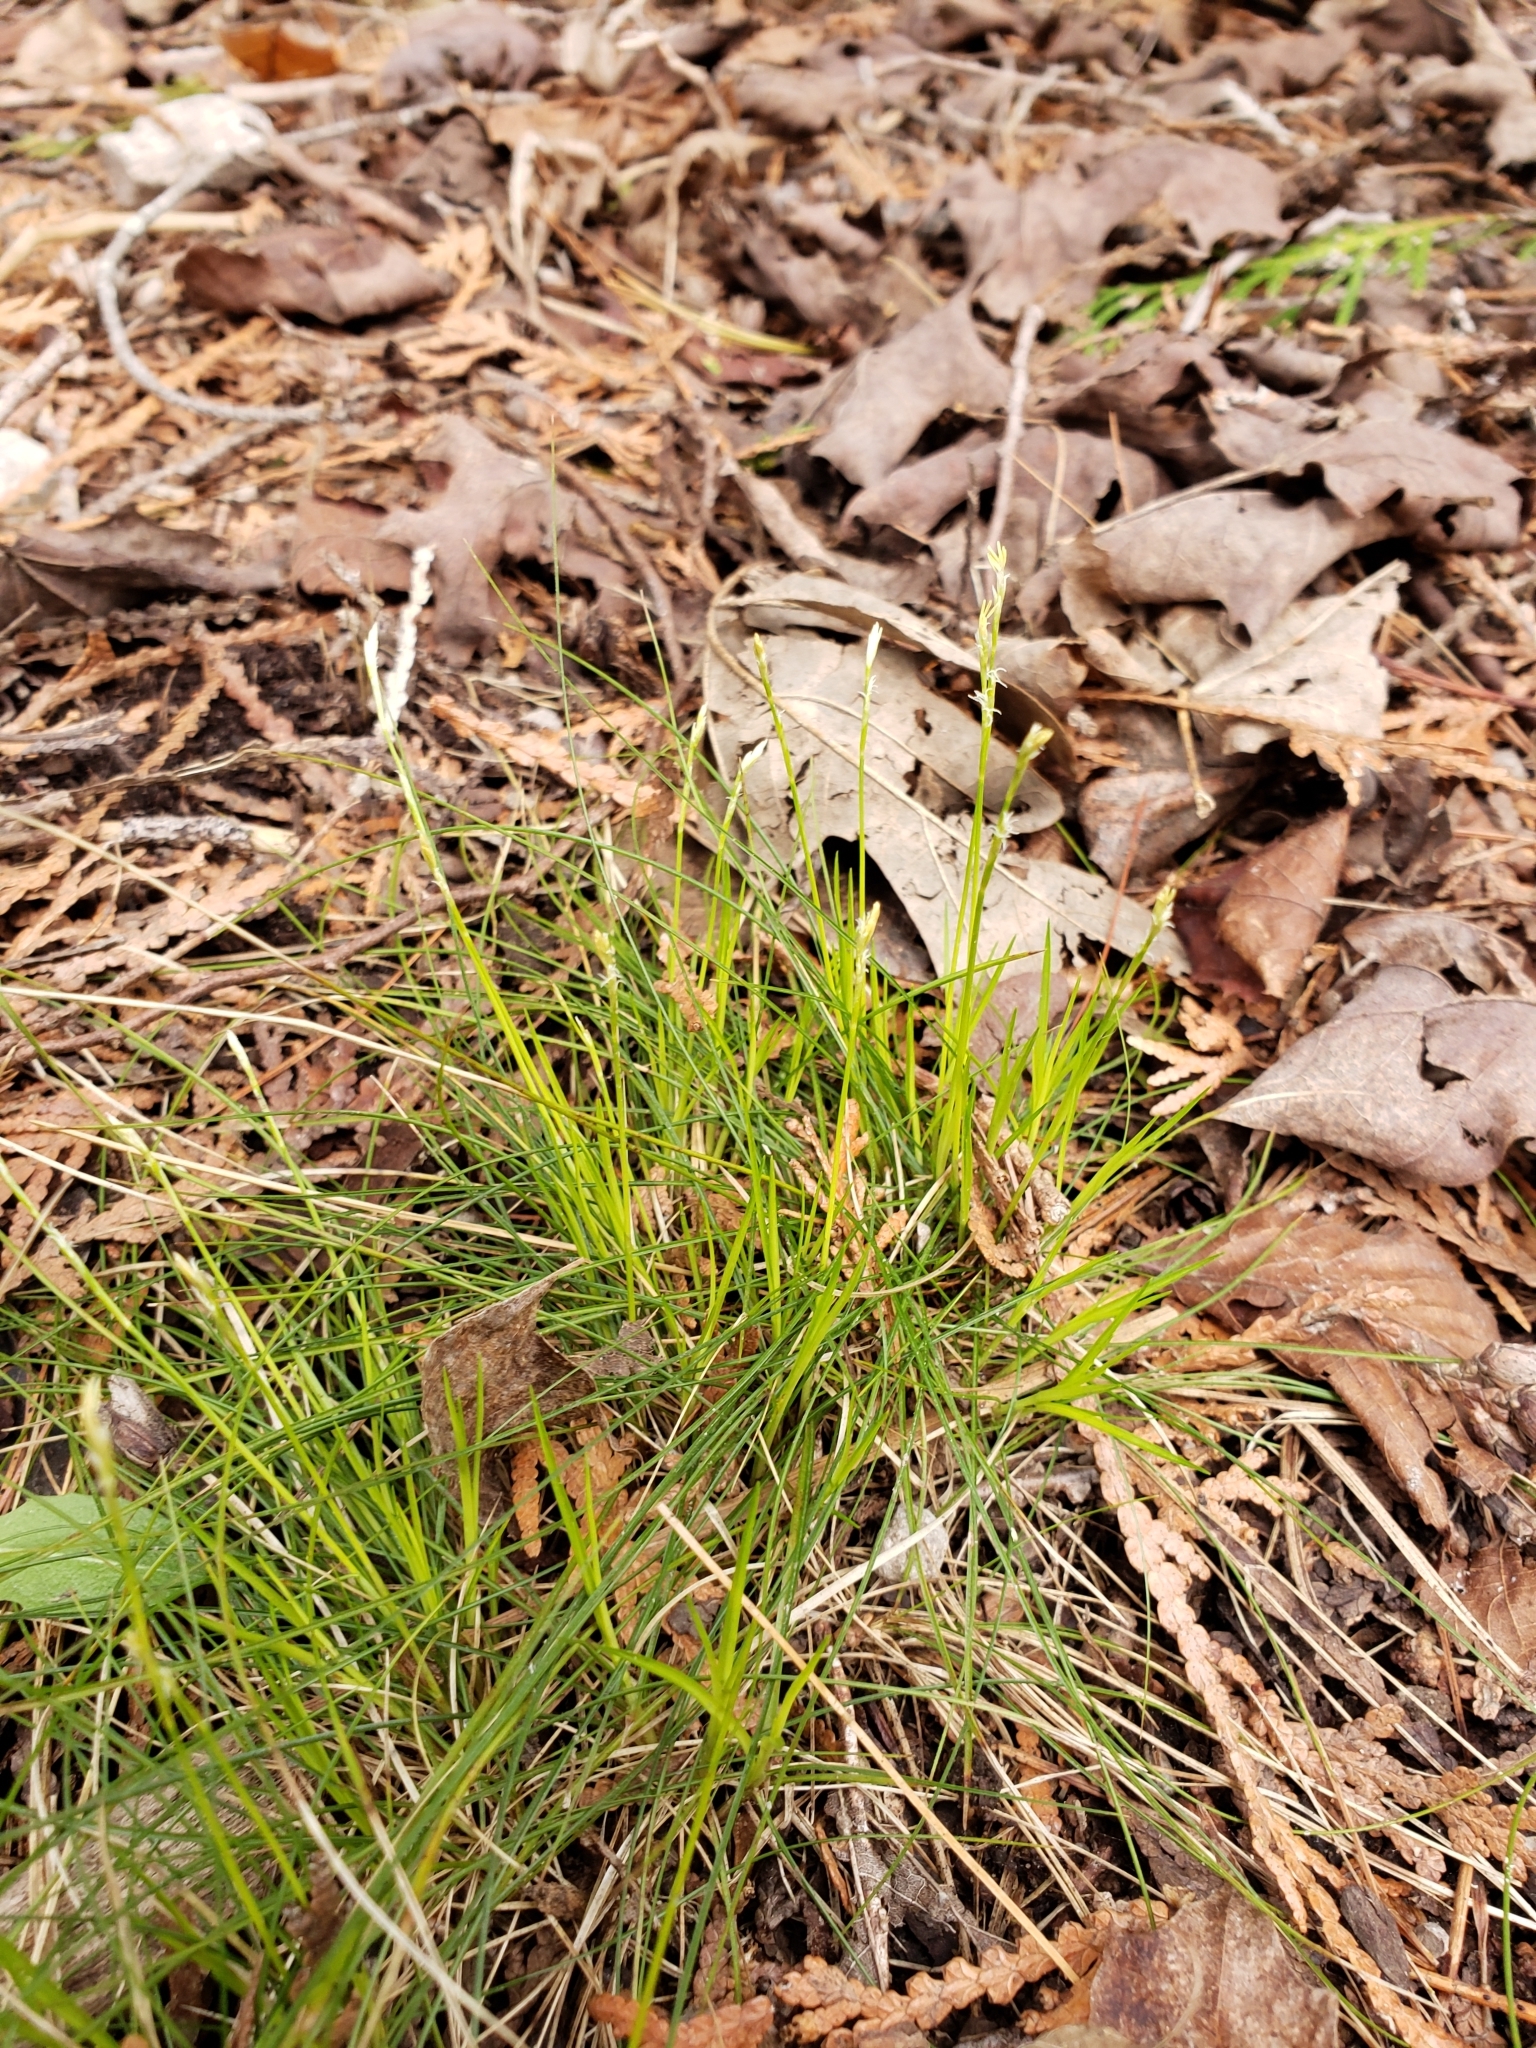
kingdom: Plantae
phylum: Tracheophyta
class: Liliopsida
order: Poales
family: Cyperaceae
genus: Carex
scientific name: Carex eburnea
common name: Bristle-leaved sedge
